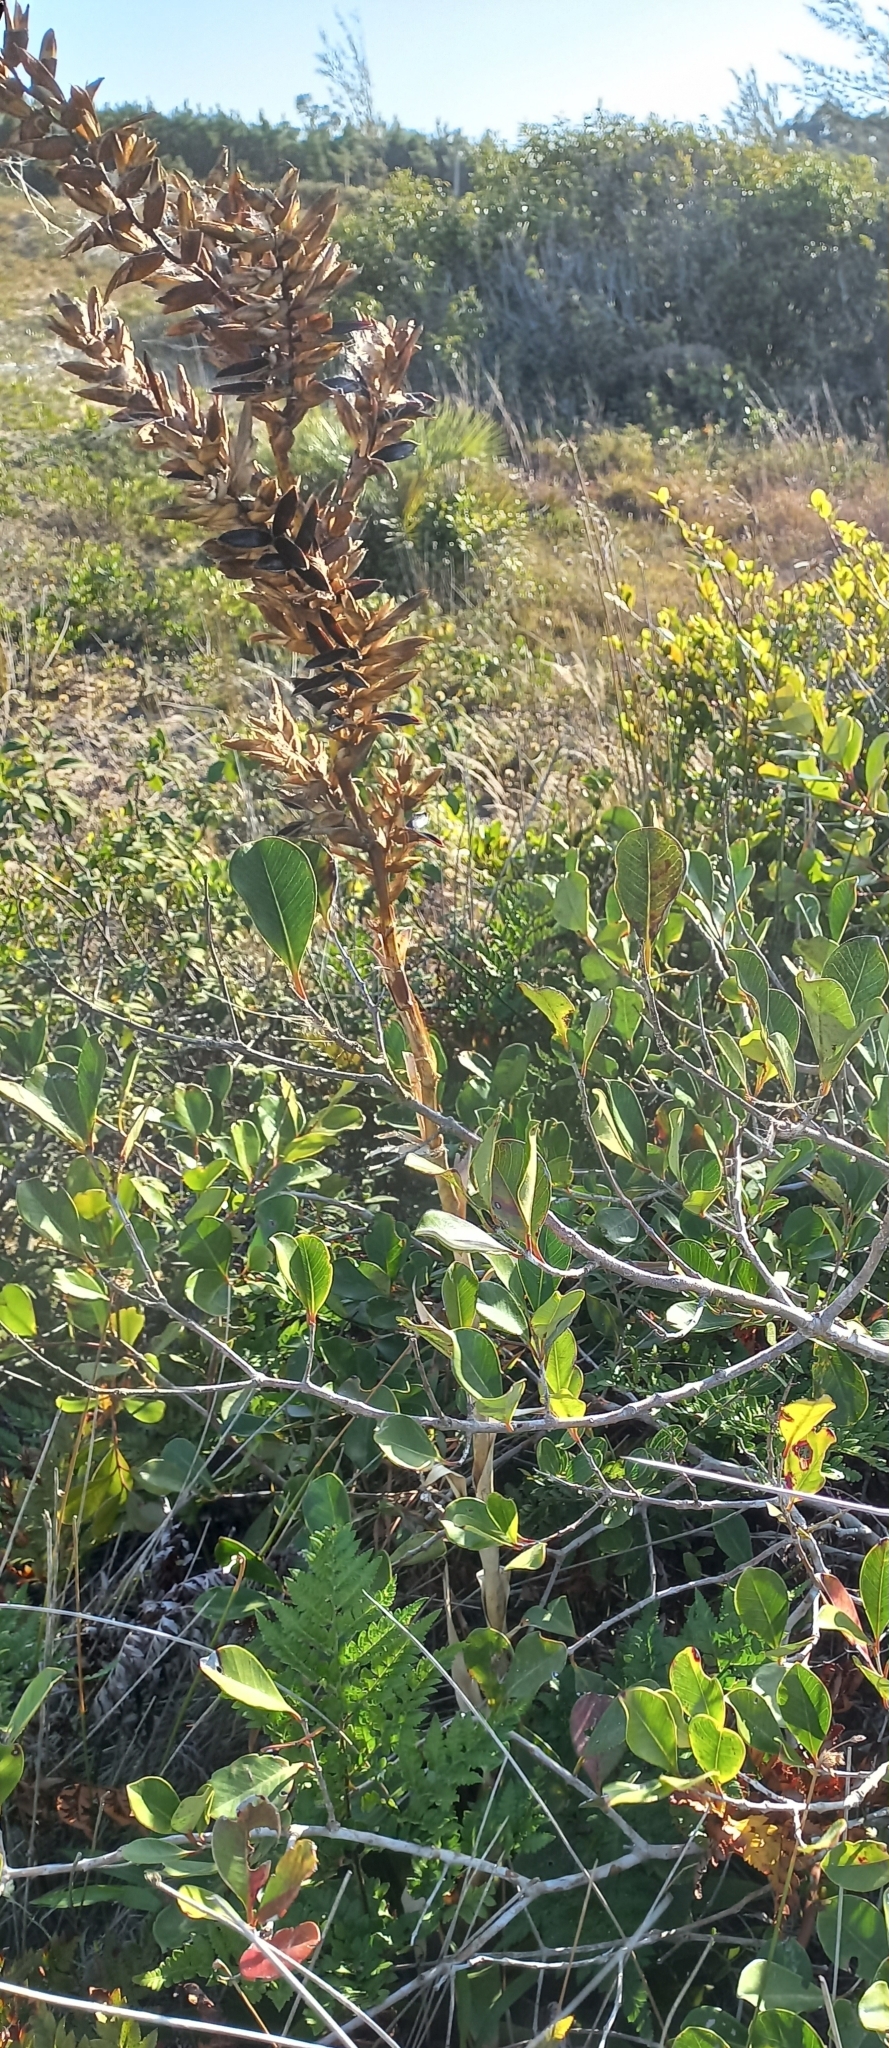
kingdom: Plantae
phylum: Tracheophyta
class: Liliopsida
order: Poales
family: Bromeliaceae
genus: Vriesea
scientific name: Vriesea friburgensis
